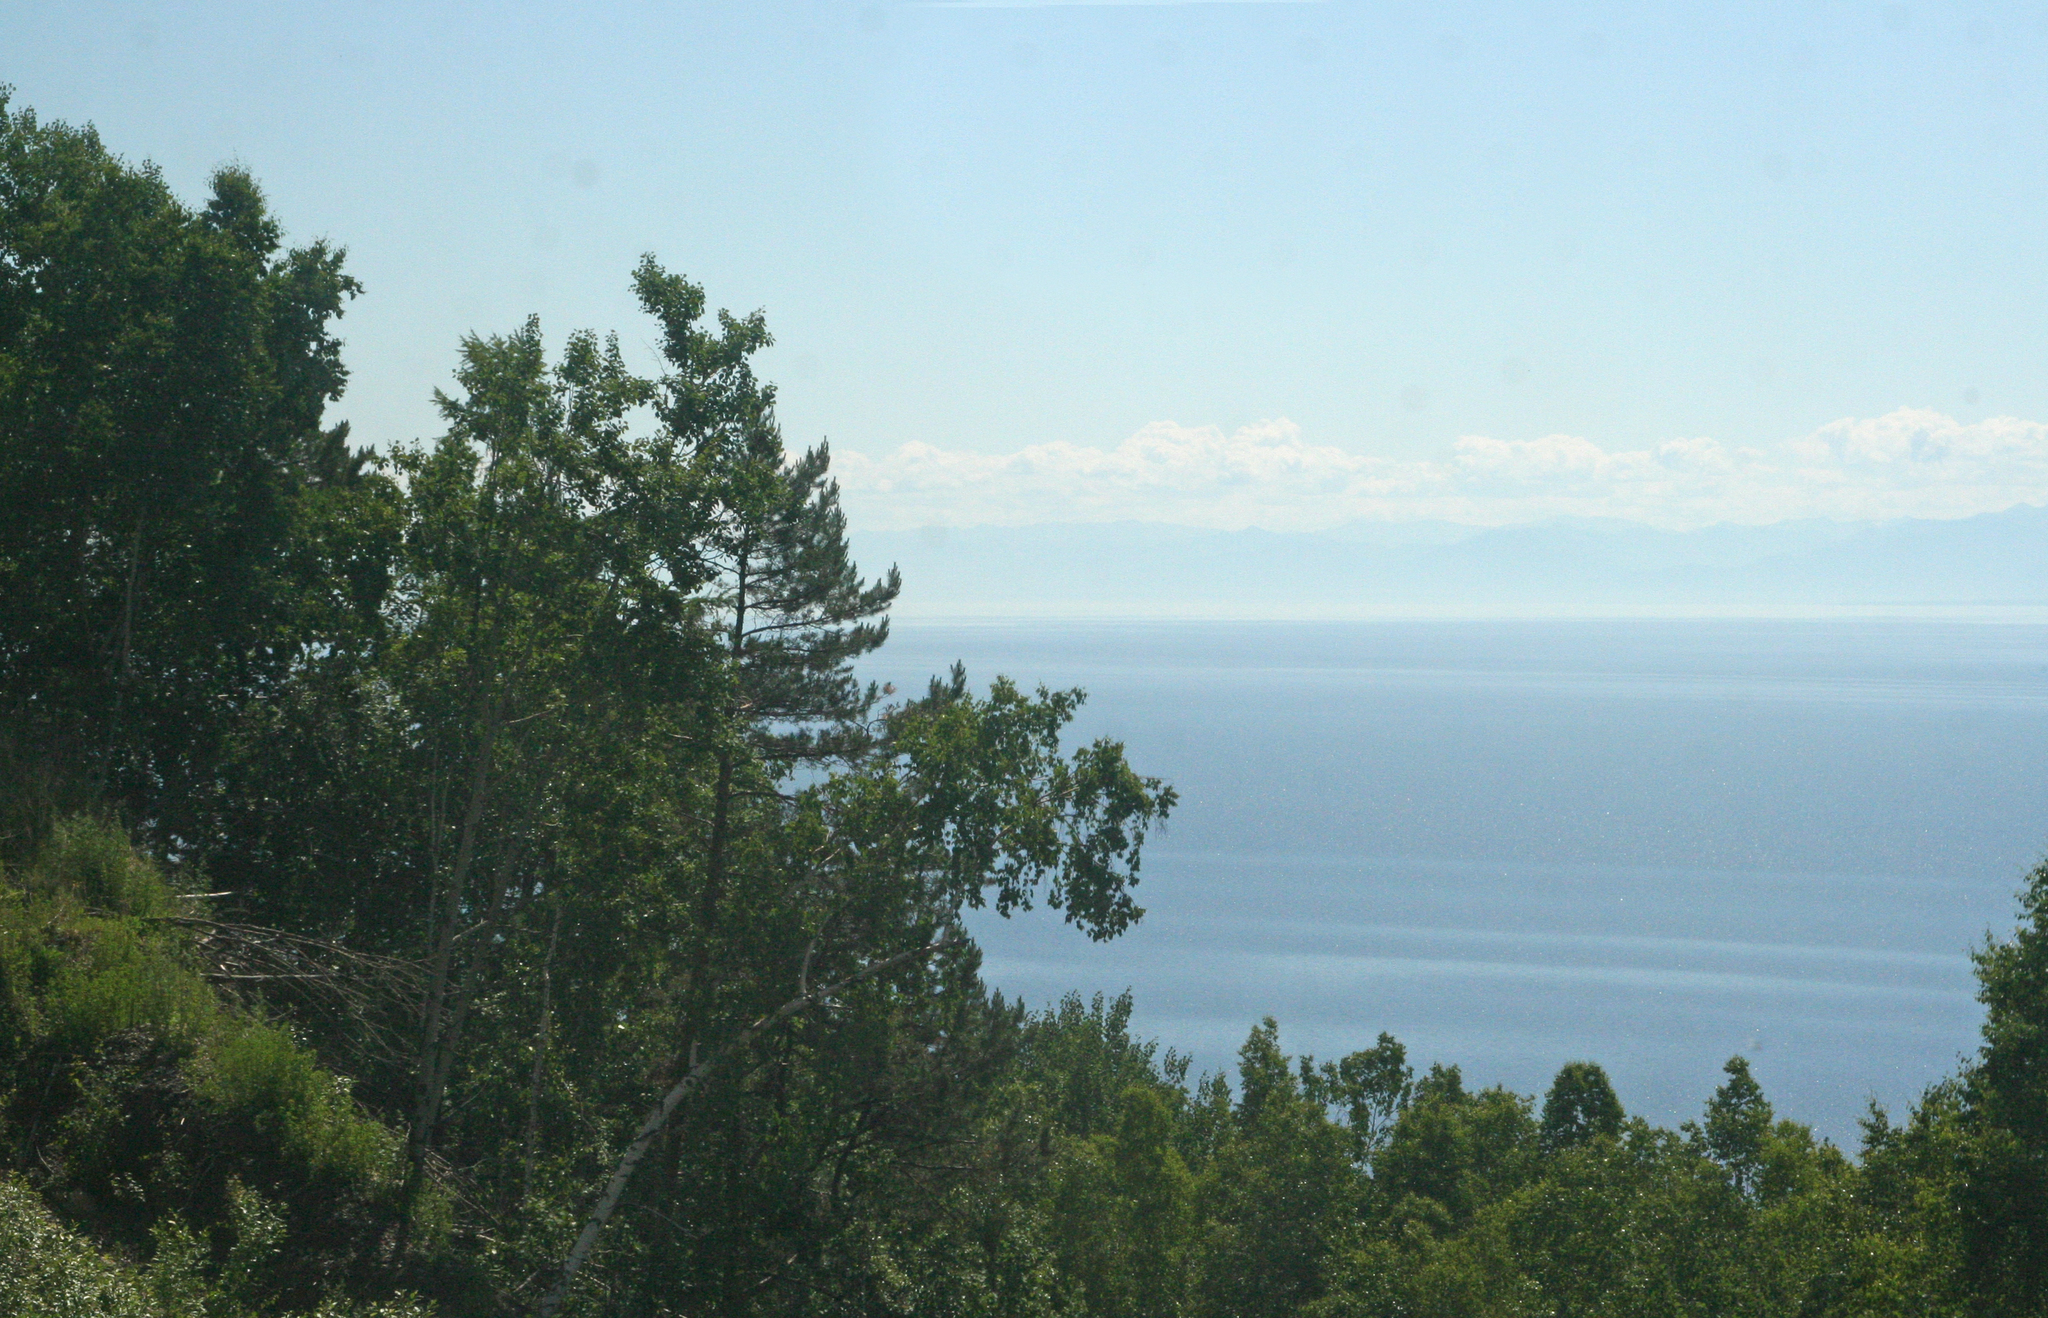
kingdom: Plantae
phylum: Tracheophyta
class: Magnoliopsida
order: Fagales
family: Betulaceae
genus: Betula
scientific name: Betula pendula
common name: Silver birch
